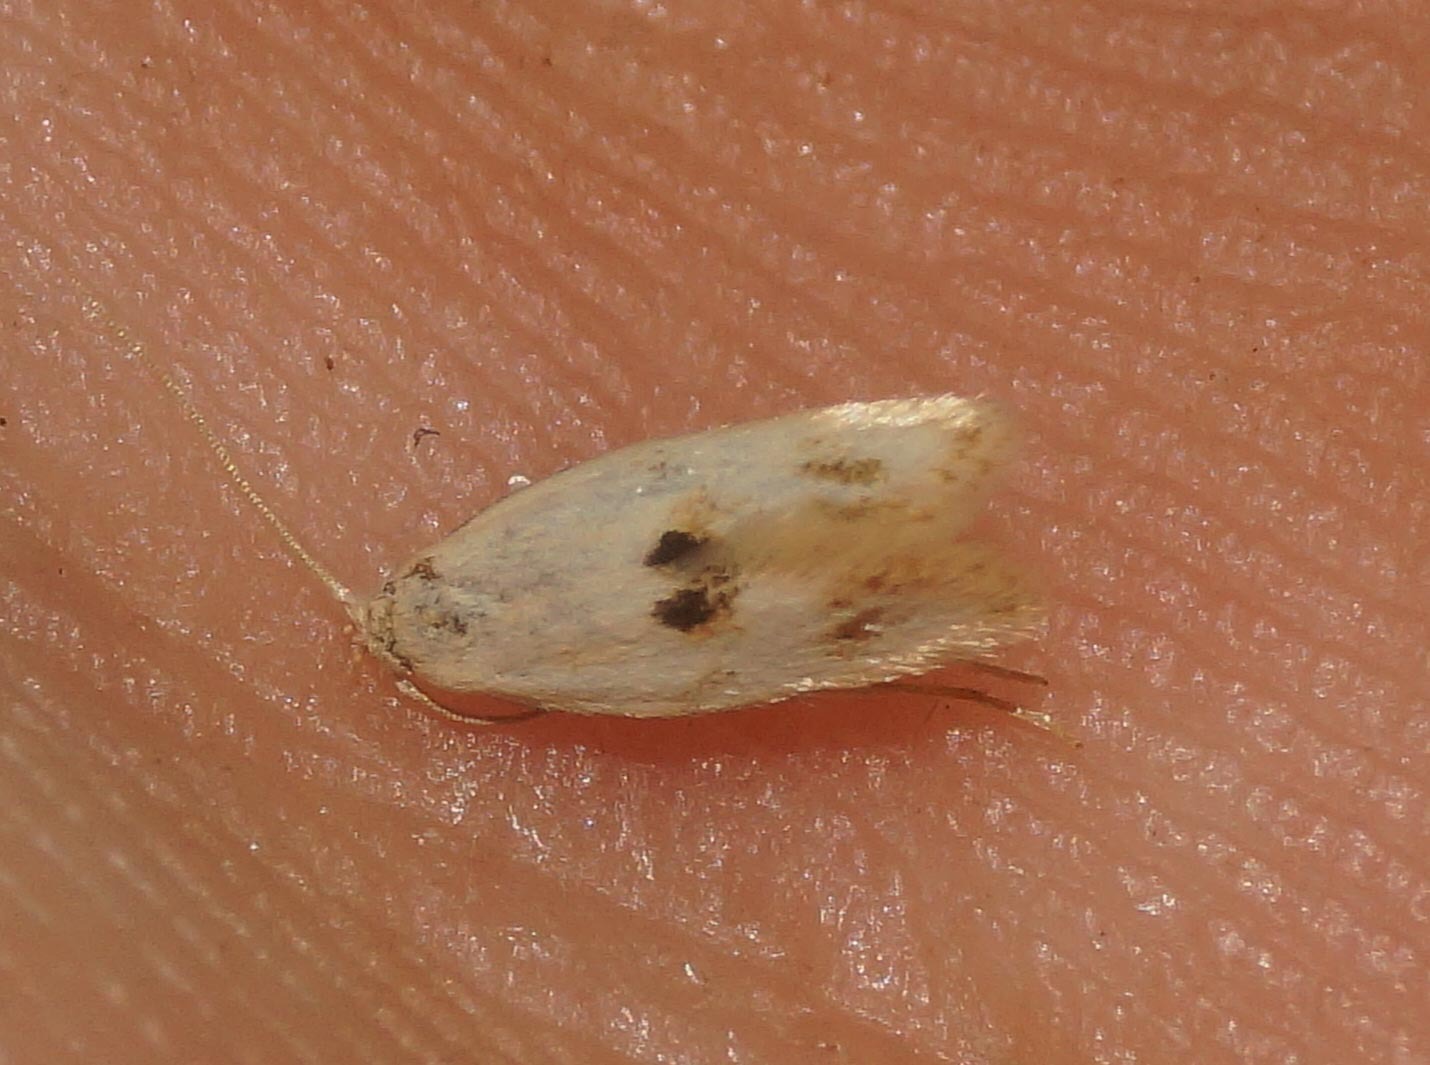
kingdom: Animalia
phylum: Arthropoda
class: Insecta
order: Lepidoptera
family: Elachistidae
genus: Elachista
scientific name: Elachista maculicerusella
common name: Triple-spot dwarf
